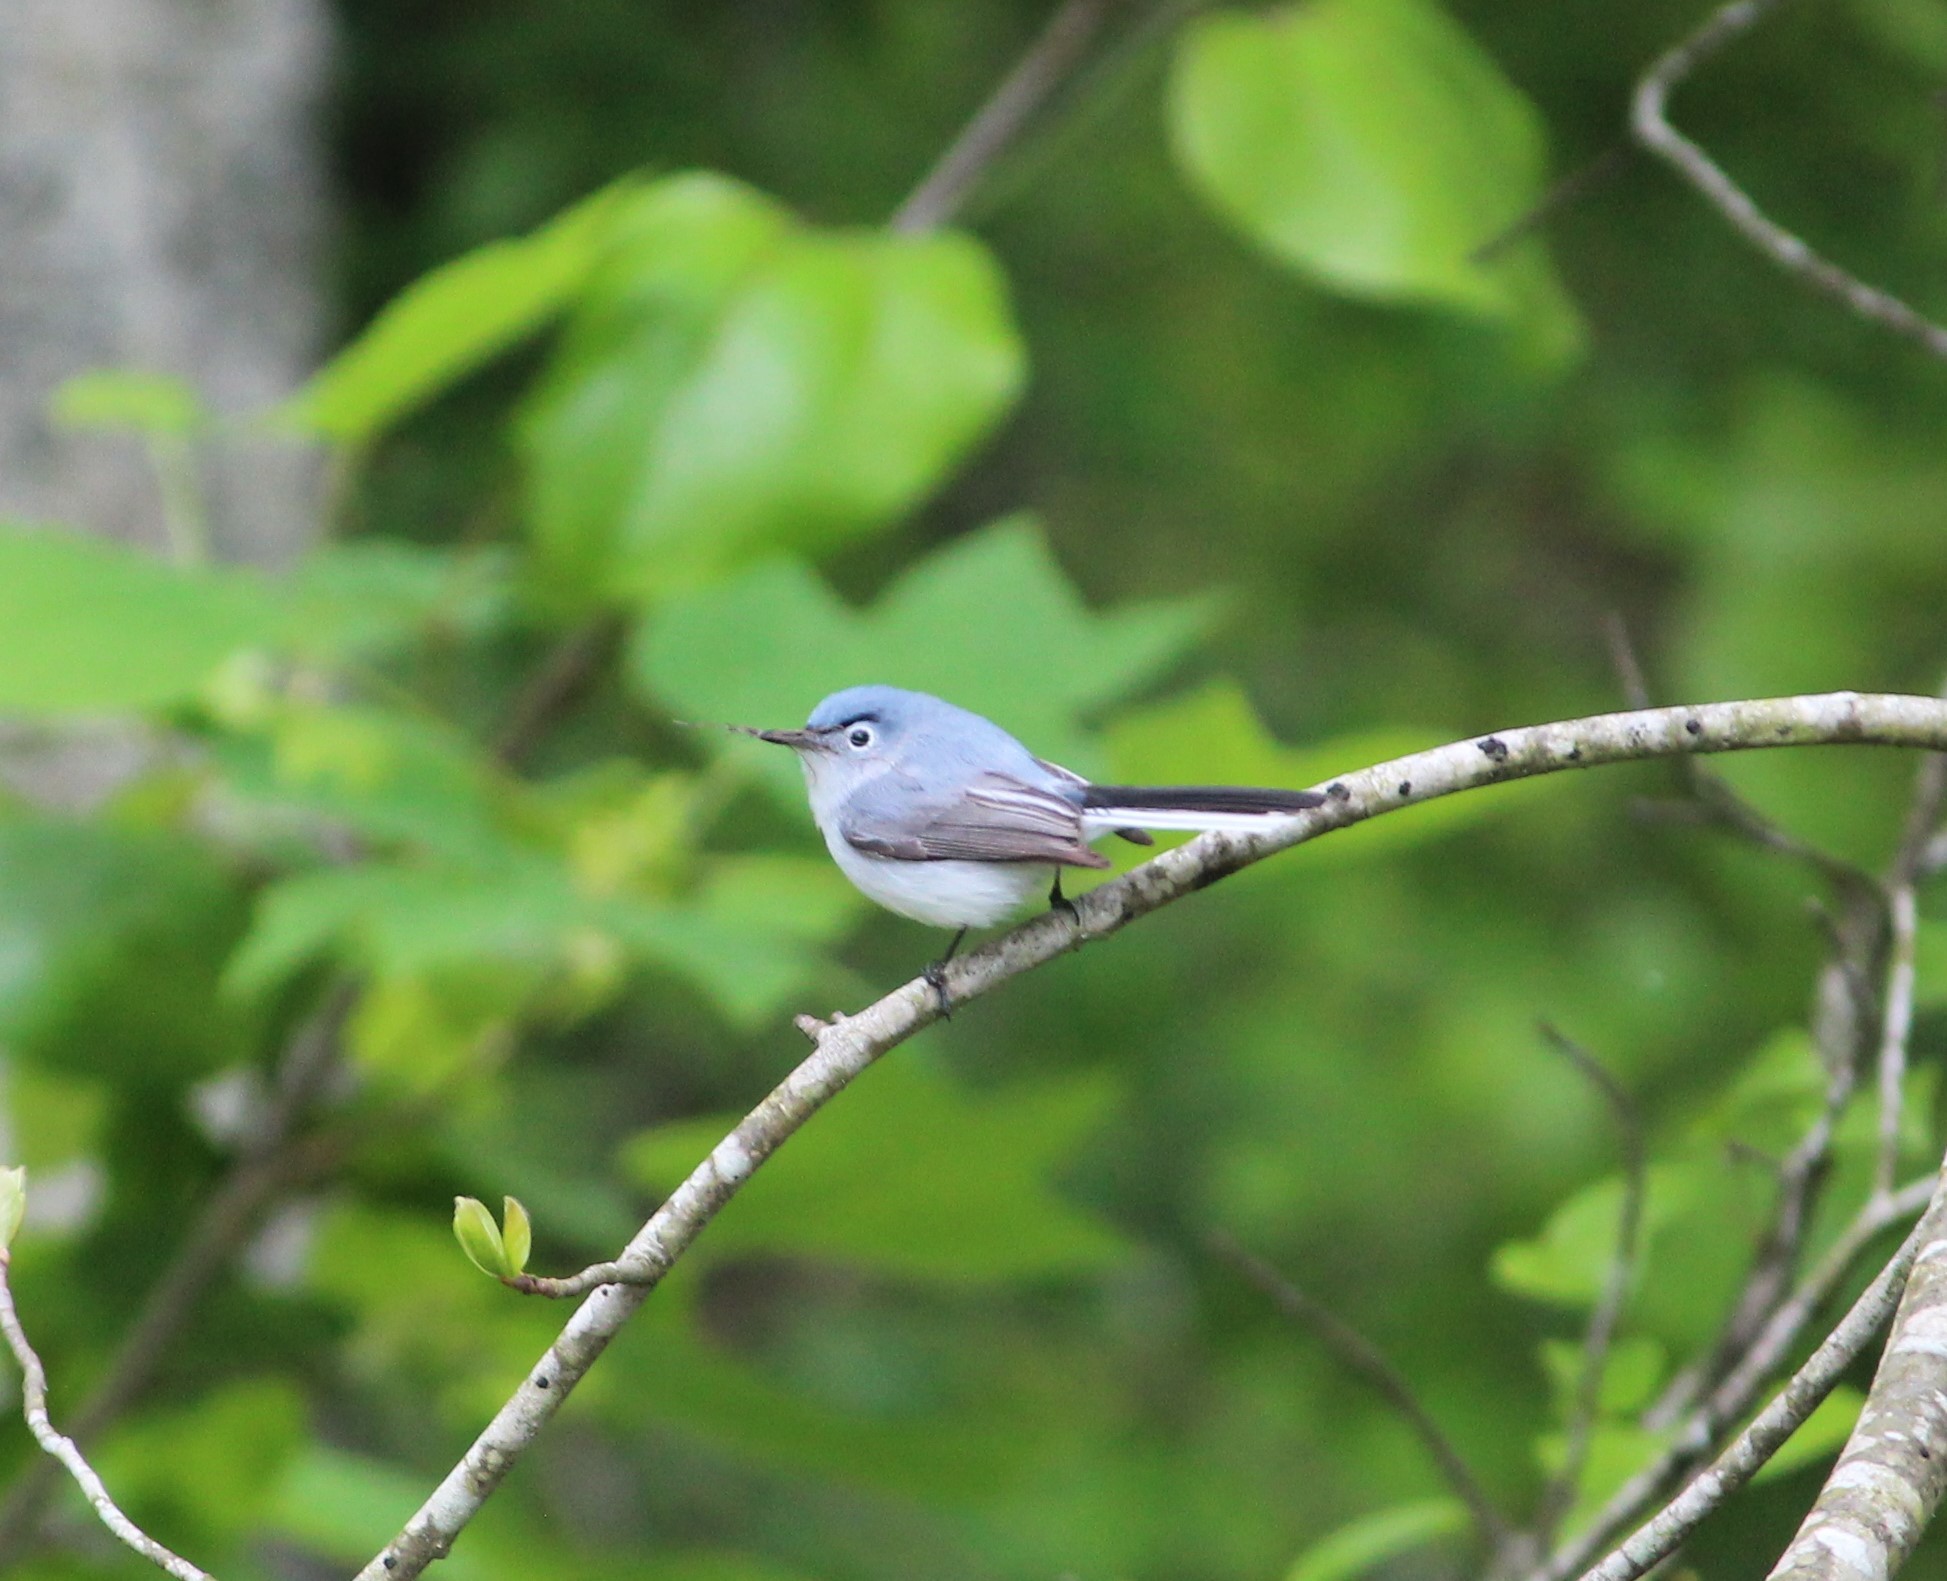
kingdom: Animalia
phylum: Chordata
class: Aves
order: Passeriformes
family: Polioptilidae
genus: Polioptila
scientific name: Polioptila caerulea
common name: Blue-gray gnatcatcher
